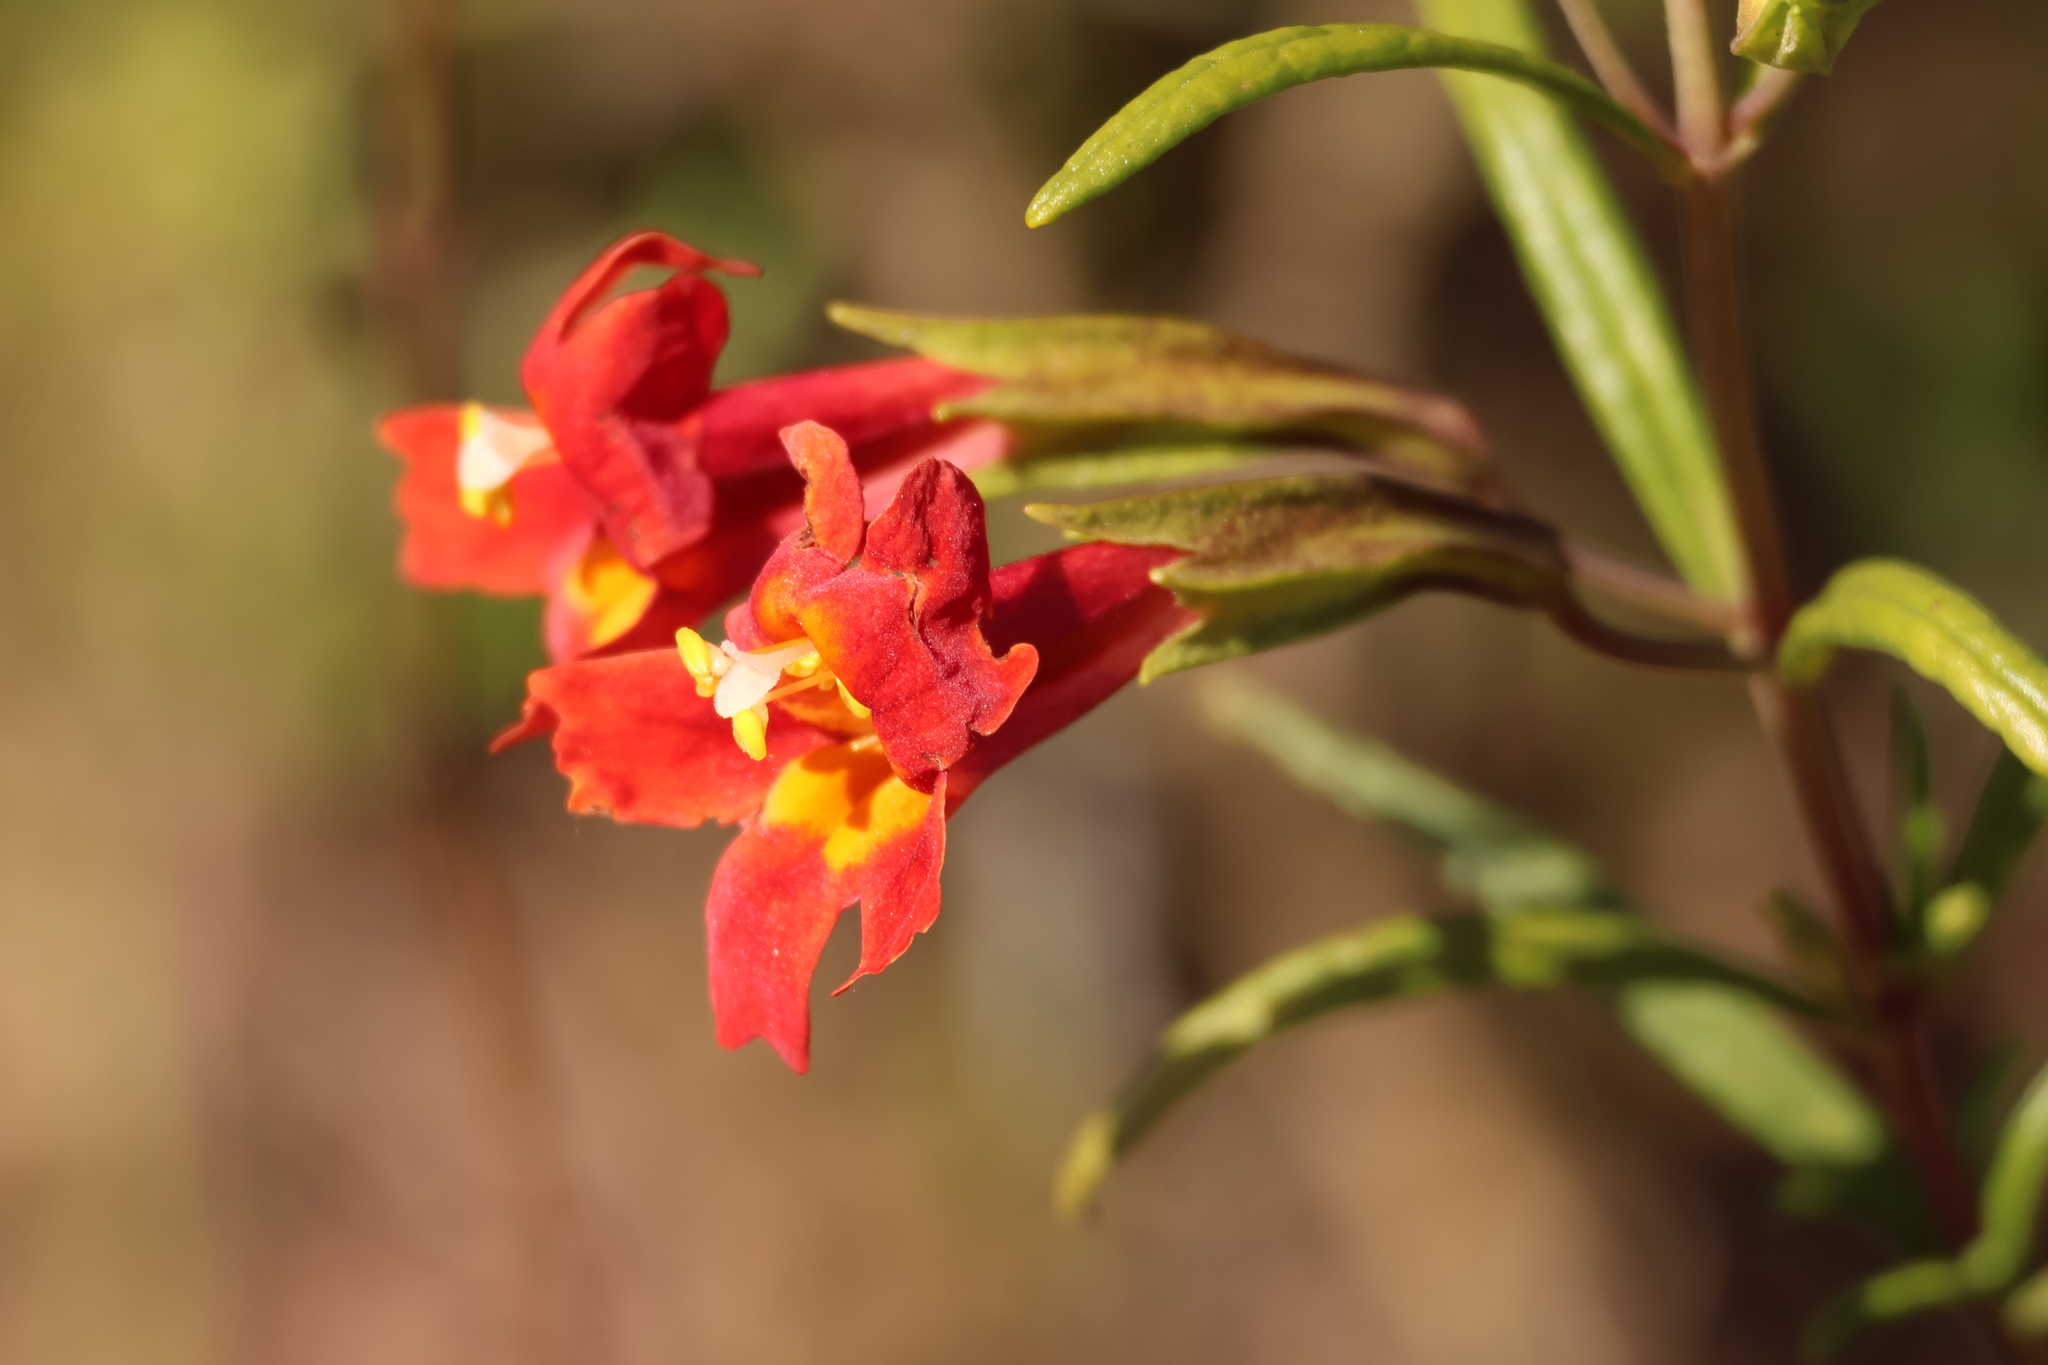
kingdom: Plantae
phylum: Tracheophyta
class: Magnoliopsida
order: Lamiales
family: Phrymaceae
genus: Diplacus
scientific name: Diplacus puniceus
